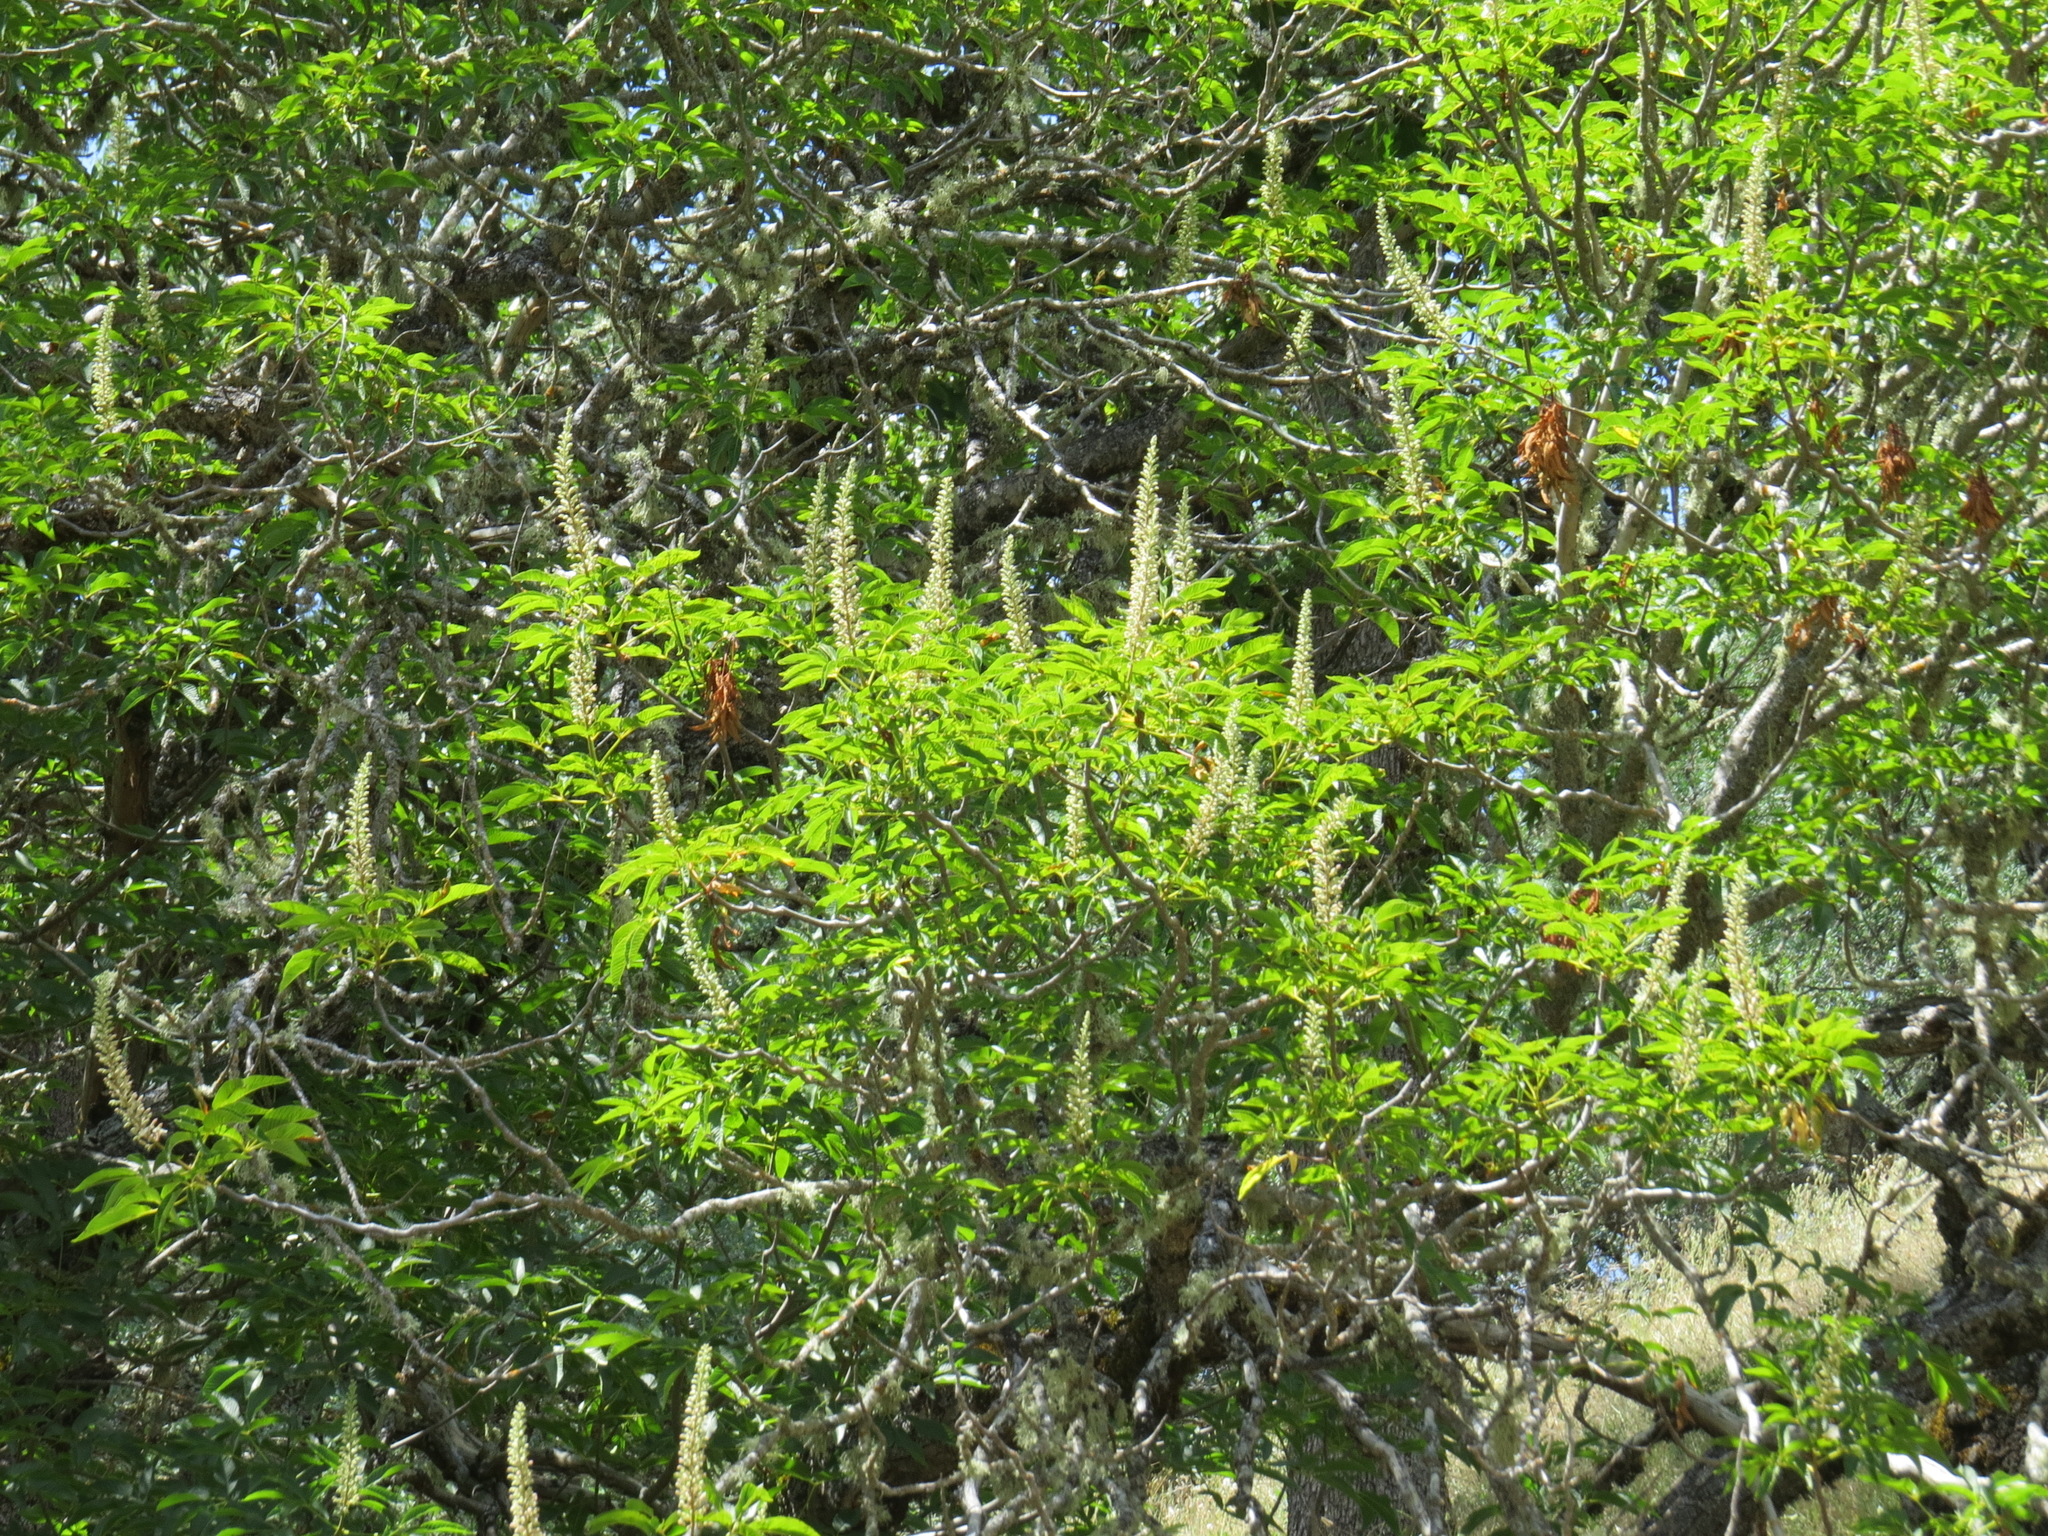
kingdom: Plantae
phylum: Tracheophyta
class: Magnoliopsida
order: Sapindales
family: Sapindaceae
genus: Aesculus
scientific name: Aesculus californica
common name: California buckeye
